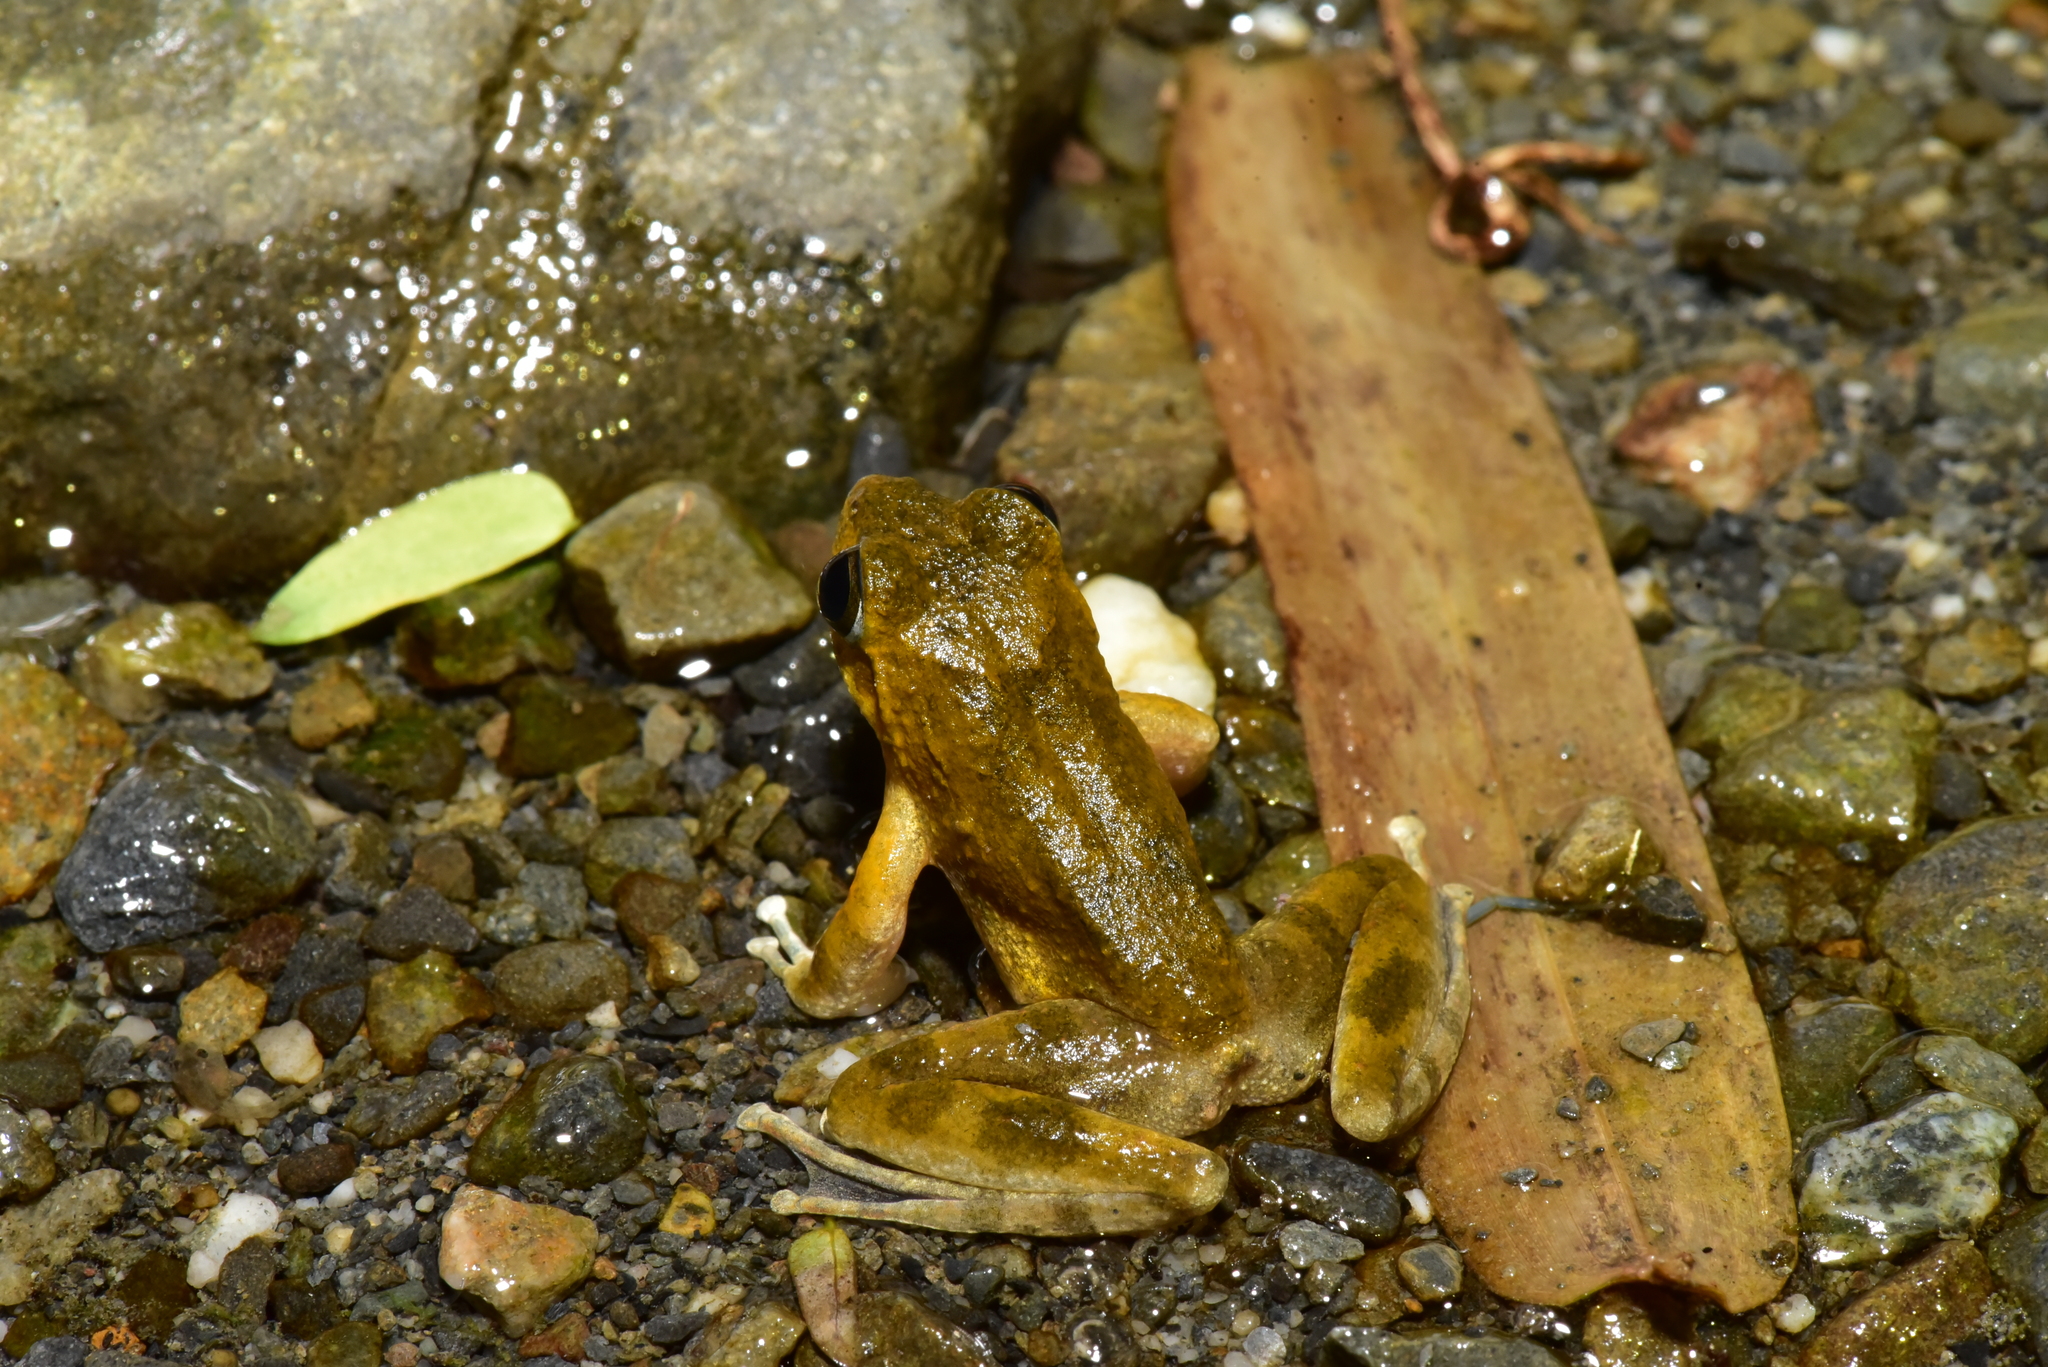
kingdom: Animalia
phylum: Chordata
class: Amphibia
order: Anura
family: Rhacophoridae
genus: Buergeria
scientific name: Buergeria otai
